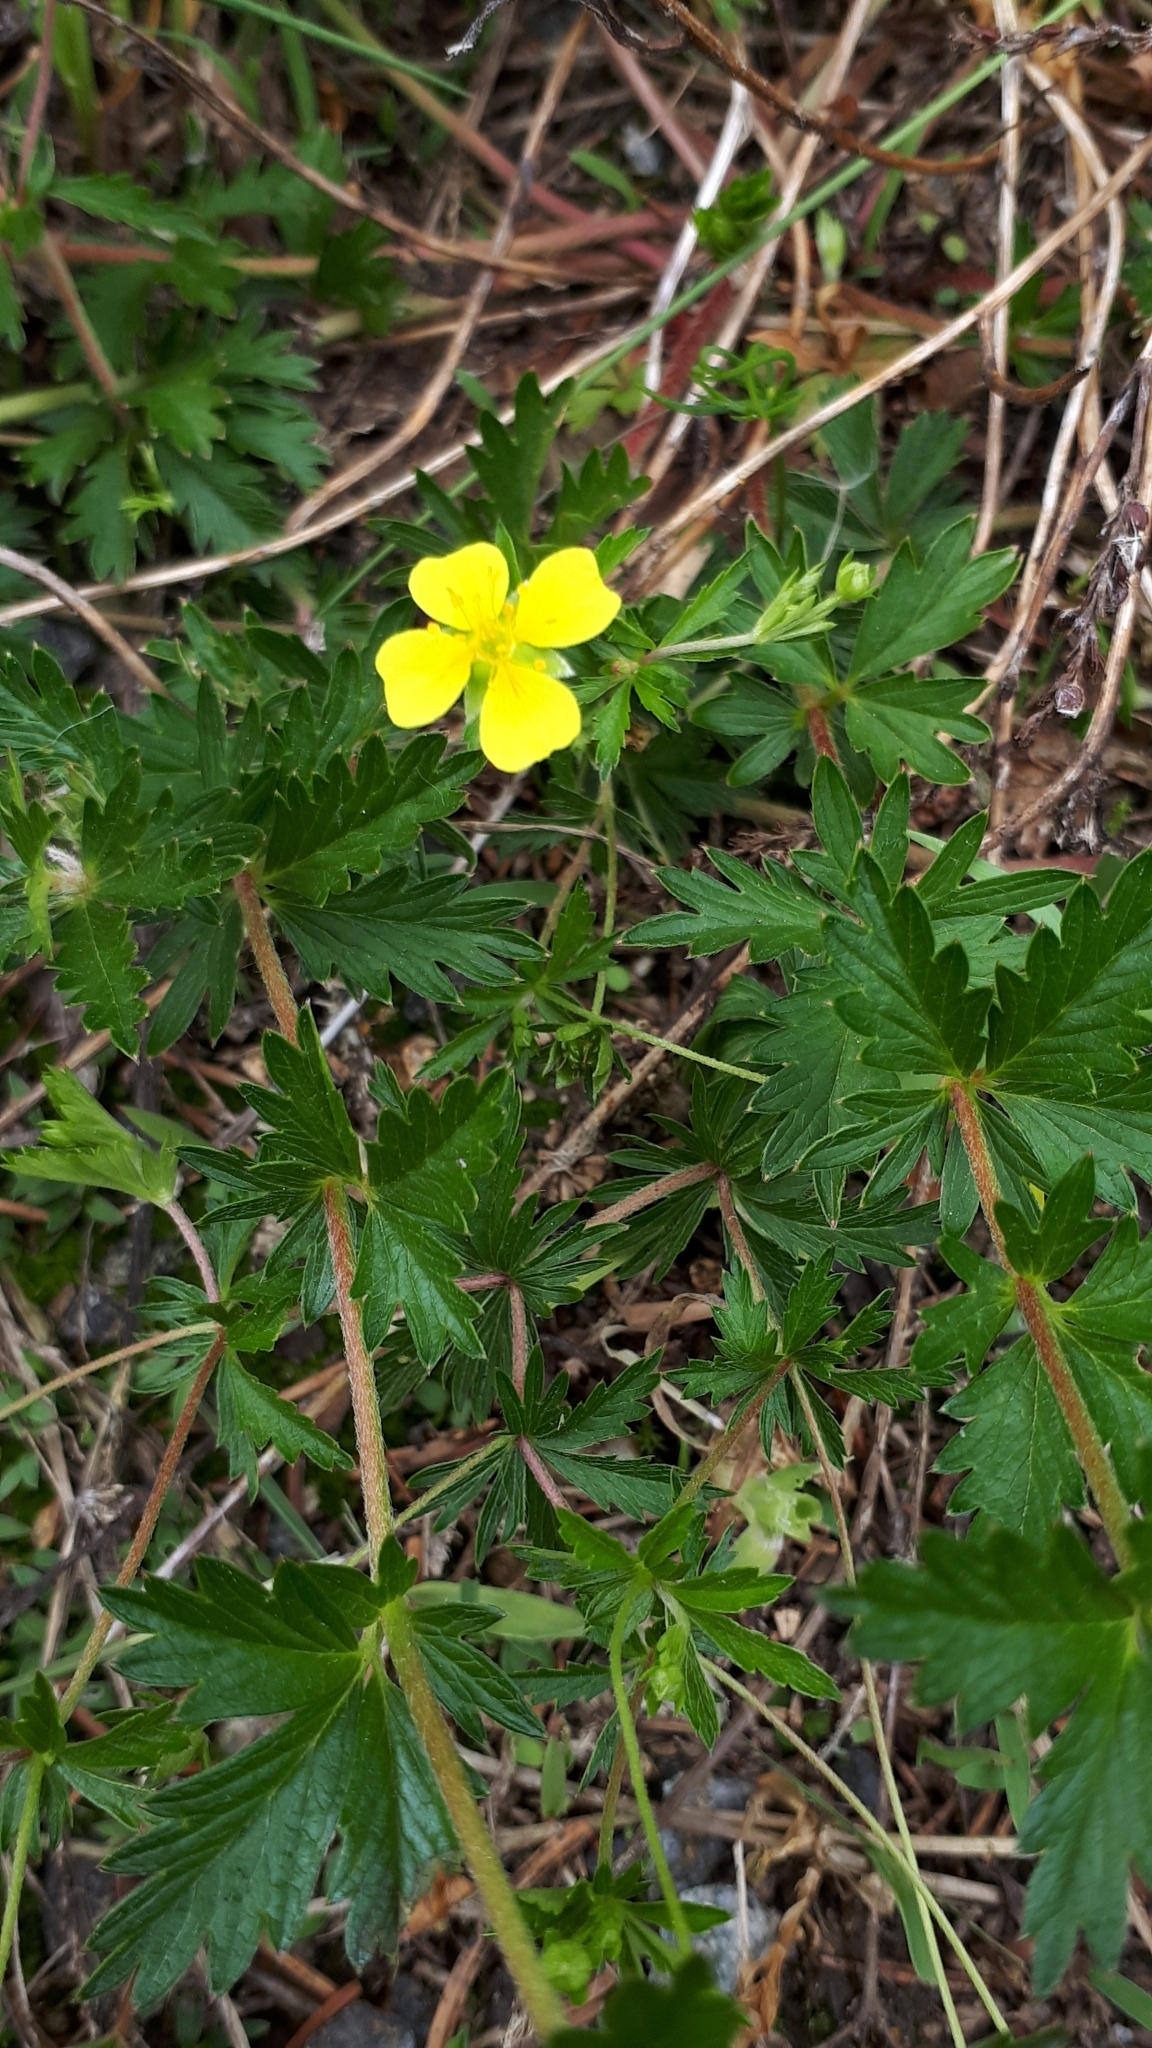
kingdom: Plantae
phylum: Tracheophyta
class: Magnoliopsida
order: Rosales
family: Rosaceae
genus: Potentilla
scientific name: Potentilla erecta
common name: Tormentil
